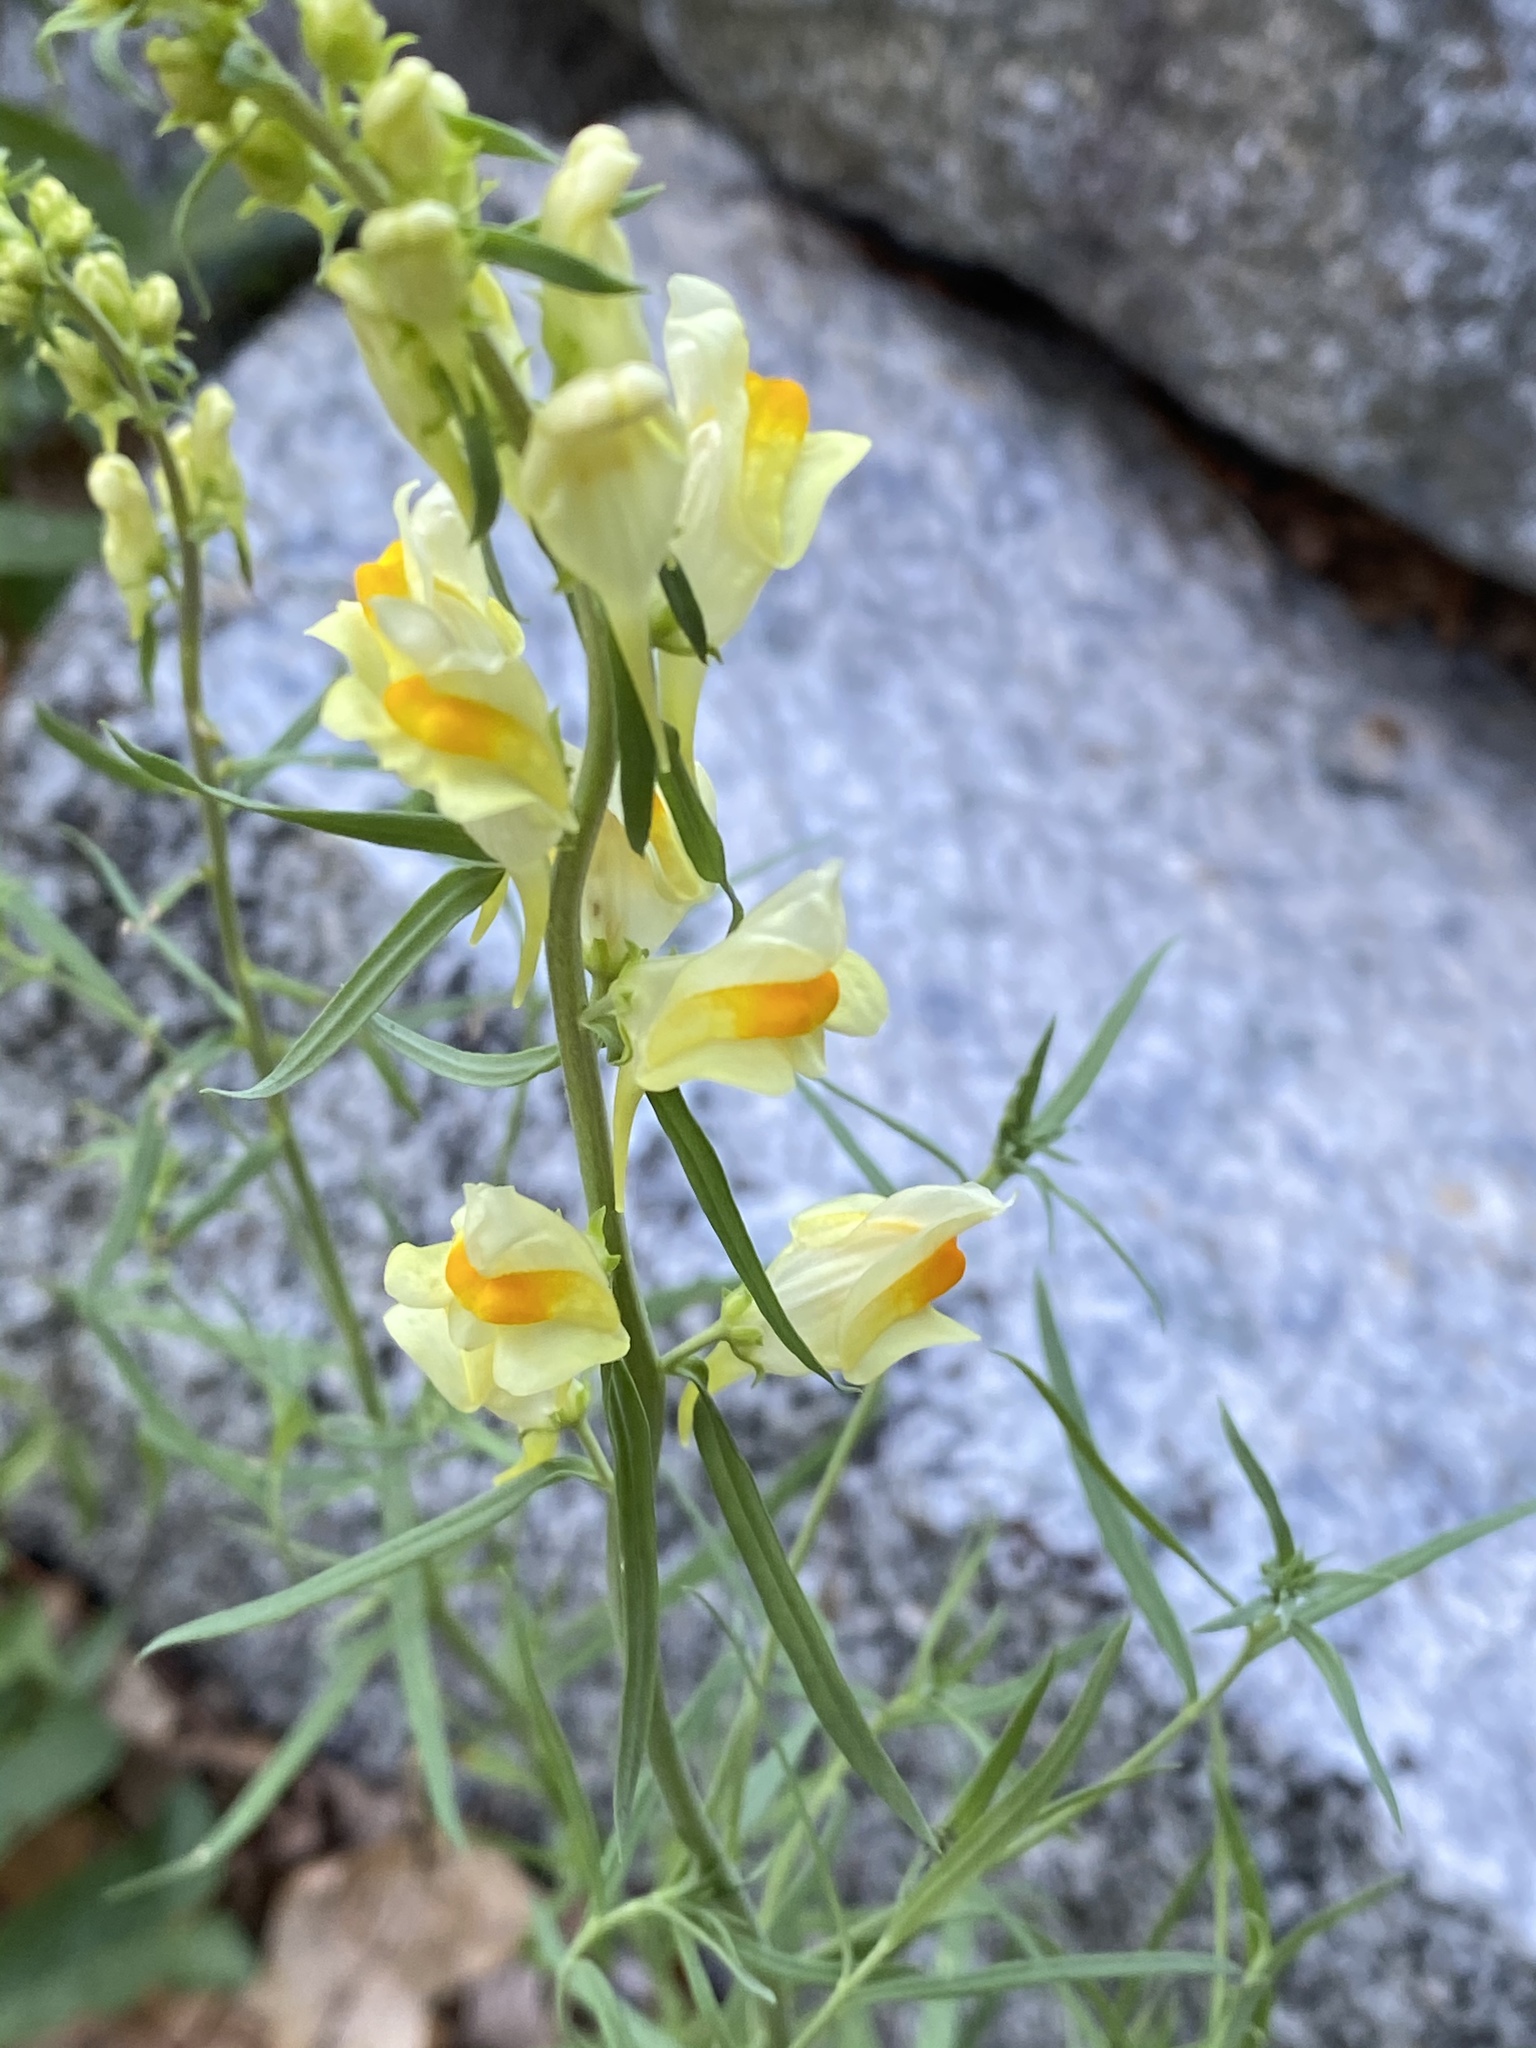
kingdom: Plantae
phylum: Tracheophyta
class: Magnoliopsida
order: Lamiales
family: Plantaginaceae
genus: Linaria
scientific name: Linaria vulgaris
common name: Butter and eggs
